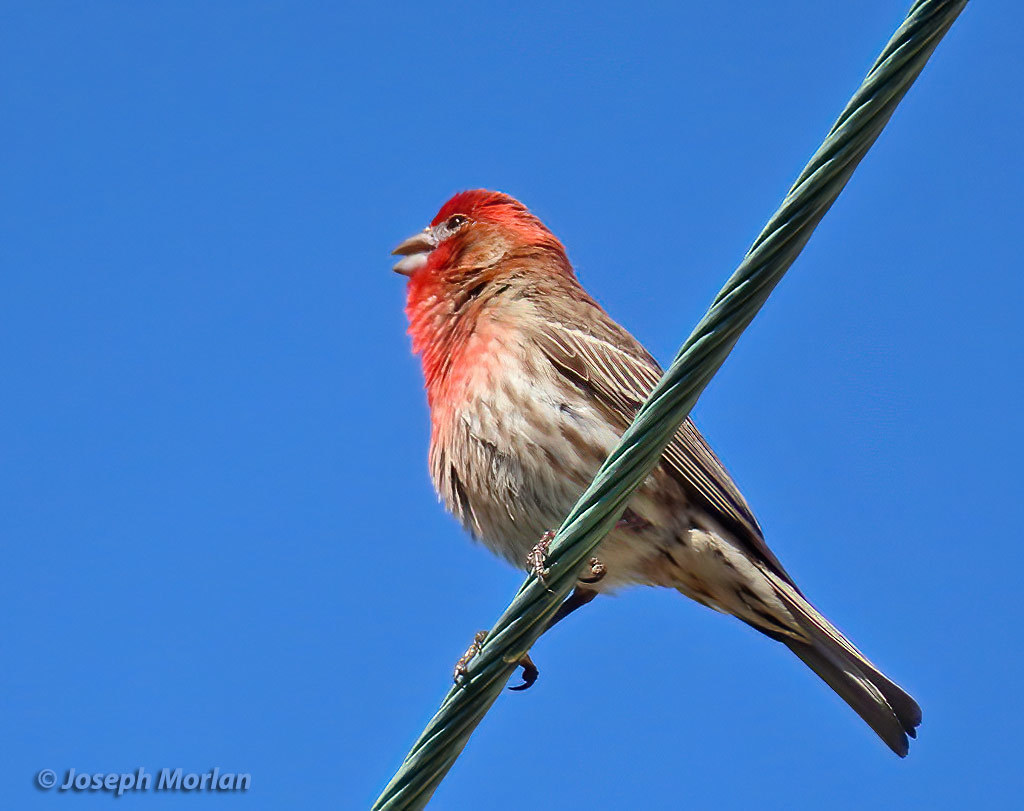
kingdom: Animalia
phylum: Chordata
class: Aves
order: Passeriformes
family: Fringillidae
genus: Haemorhous
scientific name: Haemorhous mexicanus
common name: House finch
